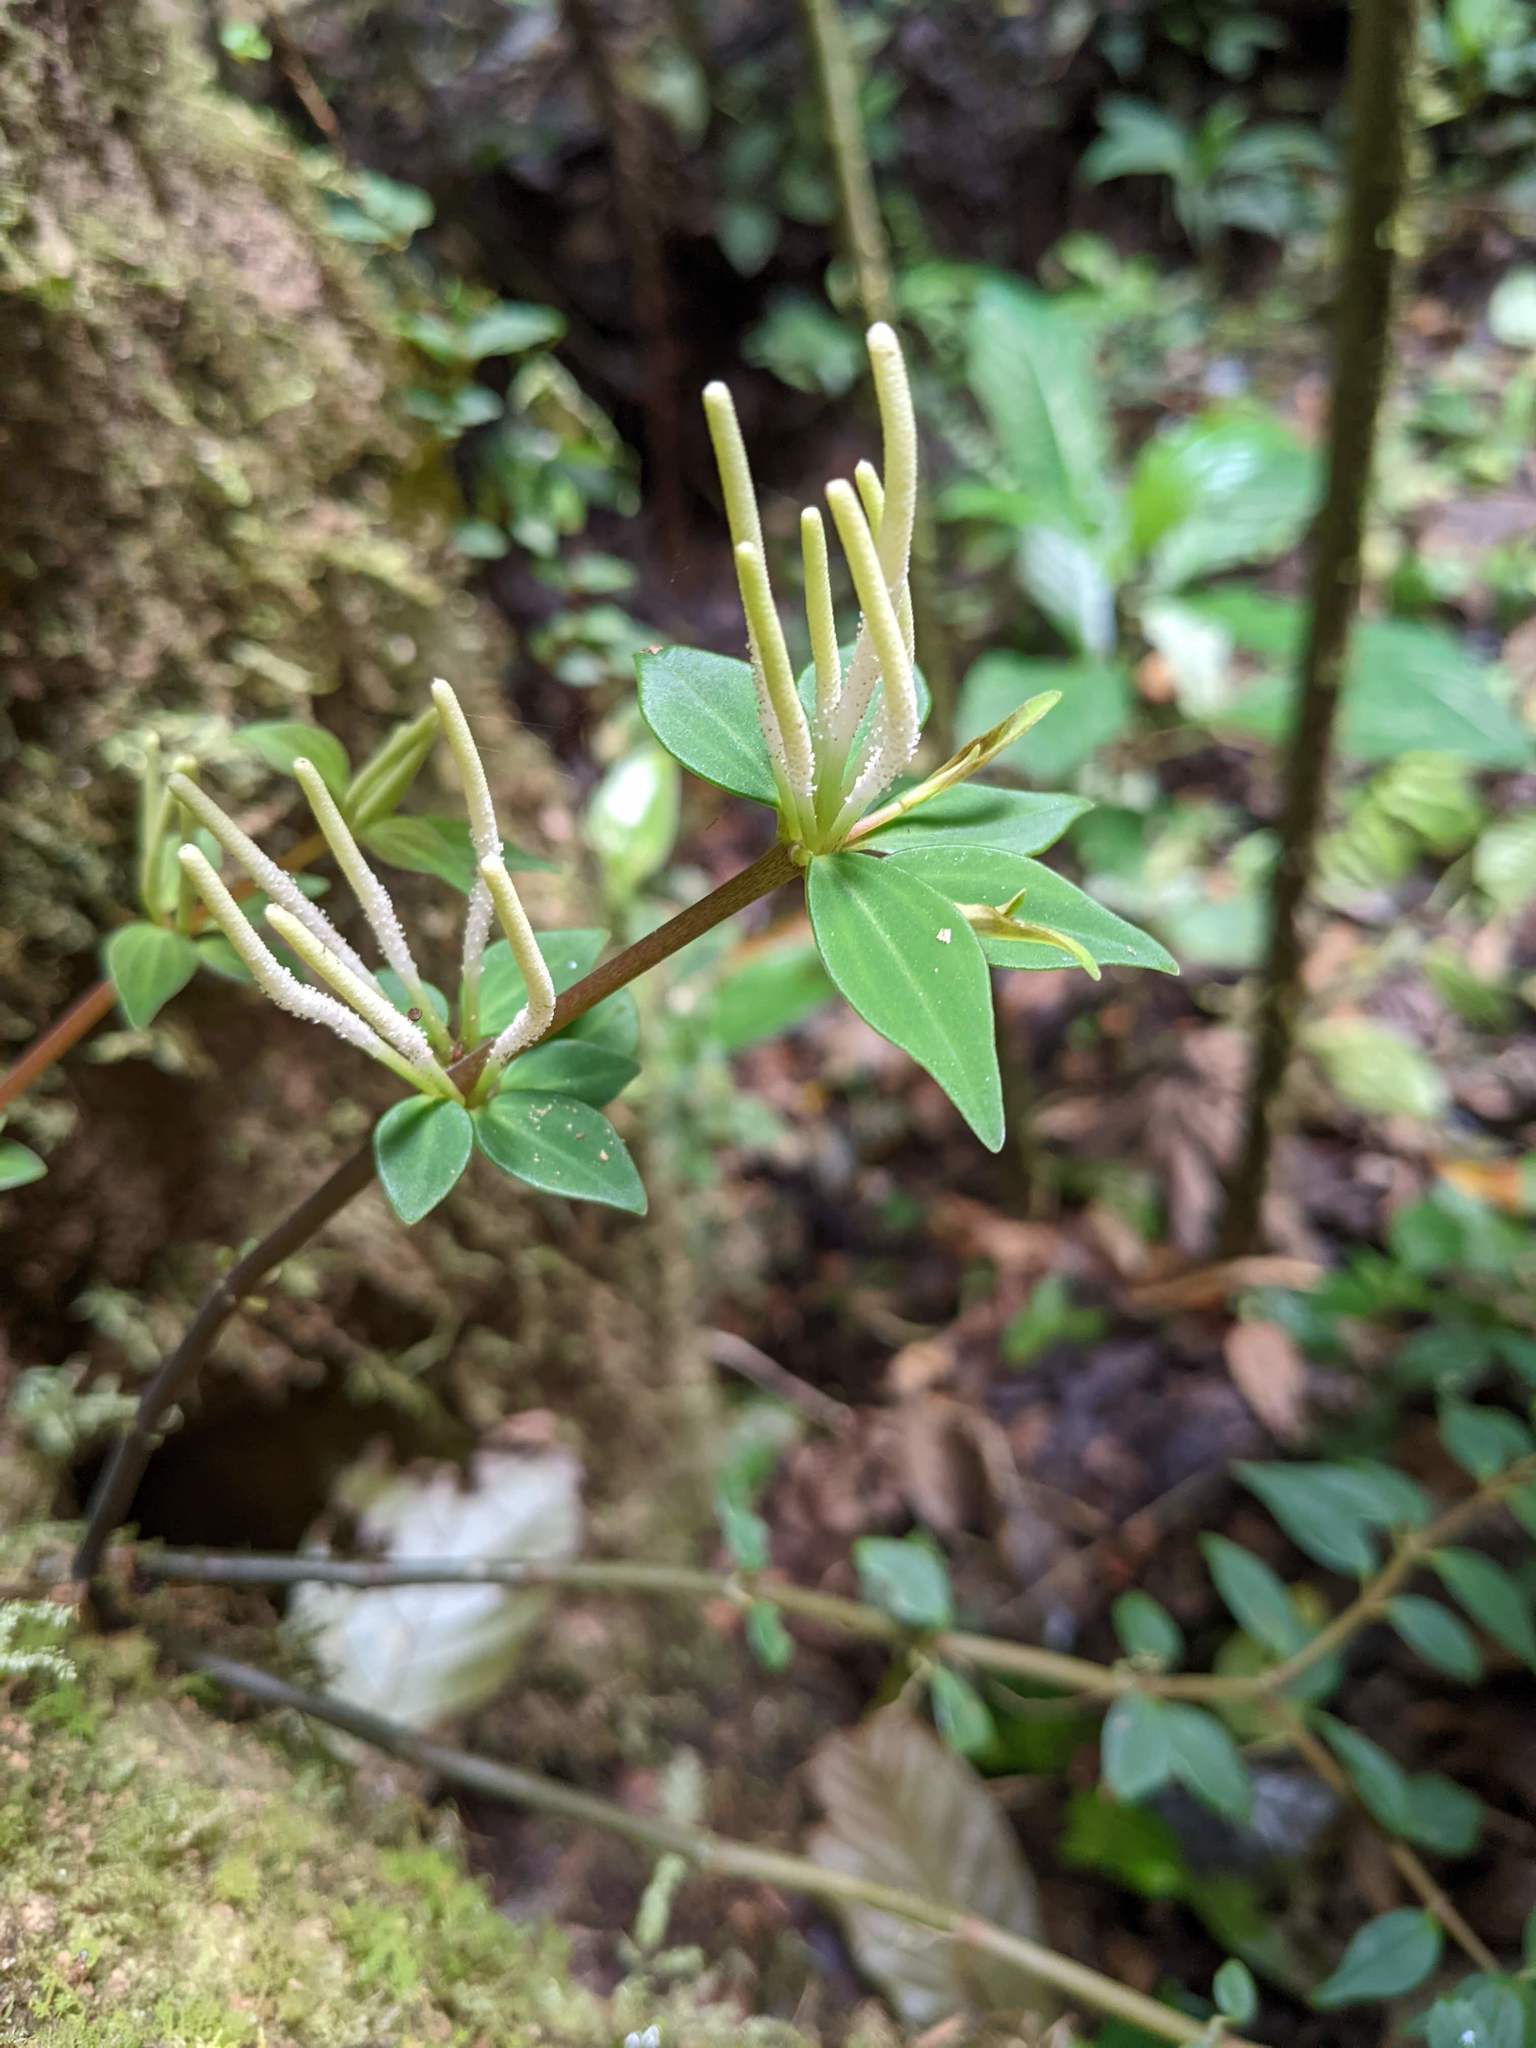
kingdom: Plantae
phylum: Tracheophyta
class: Magnoliopsida
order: Piperales
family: Piperaceae
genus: Peperomia
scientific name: Peperomia palmana
